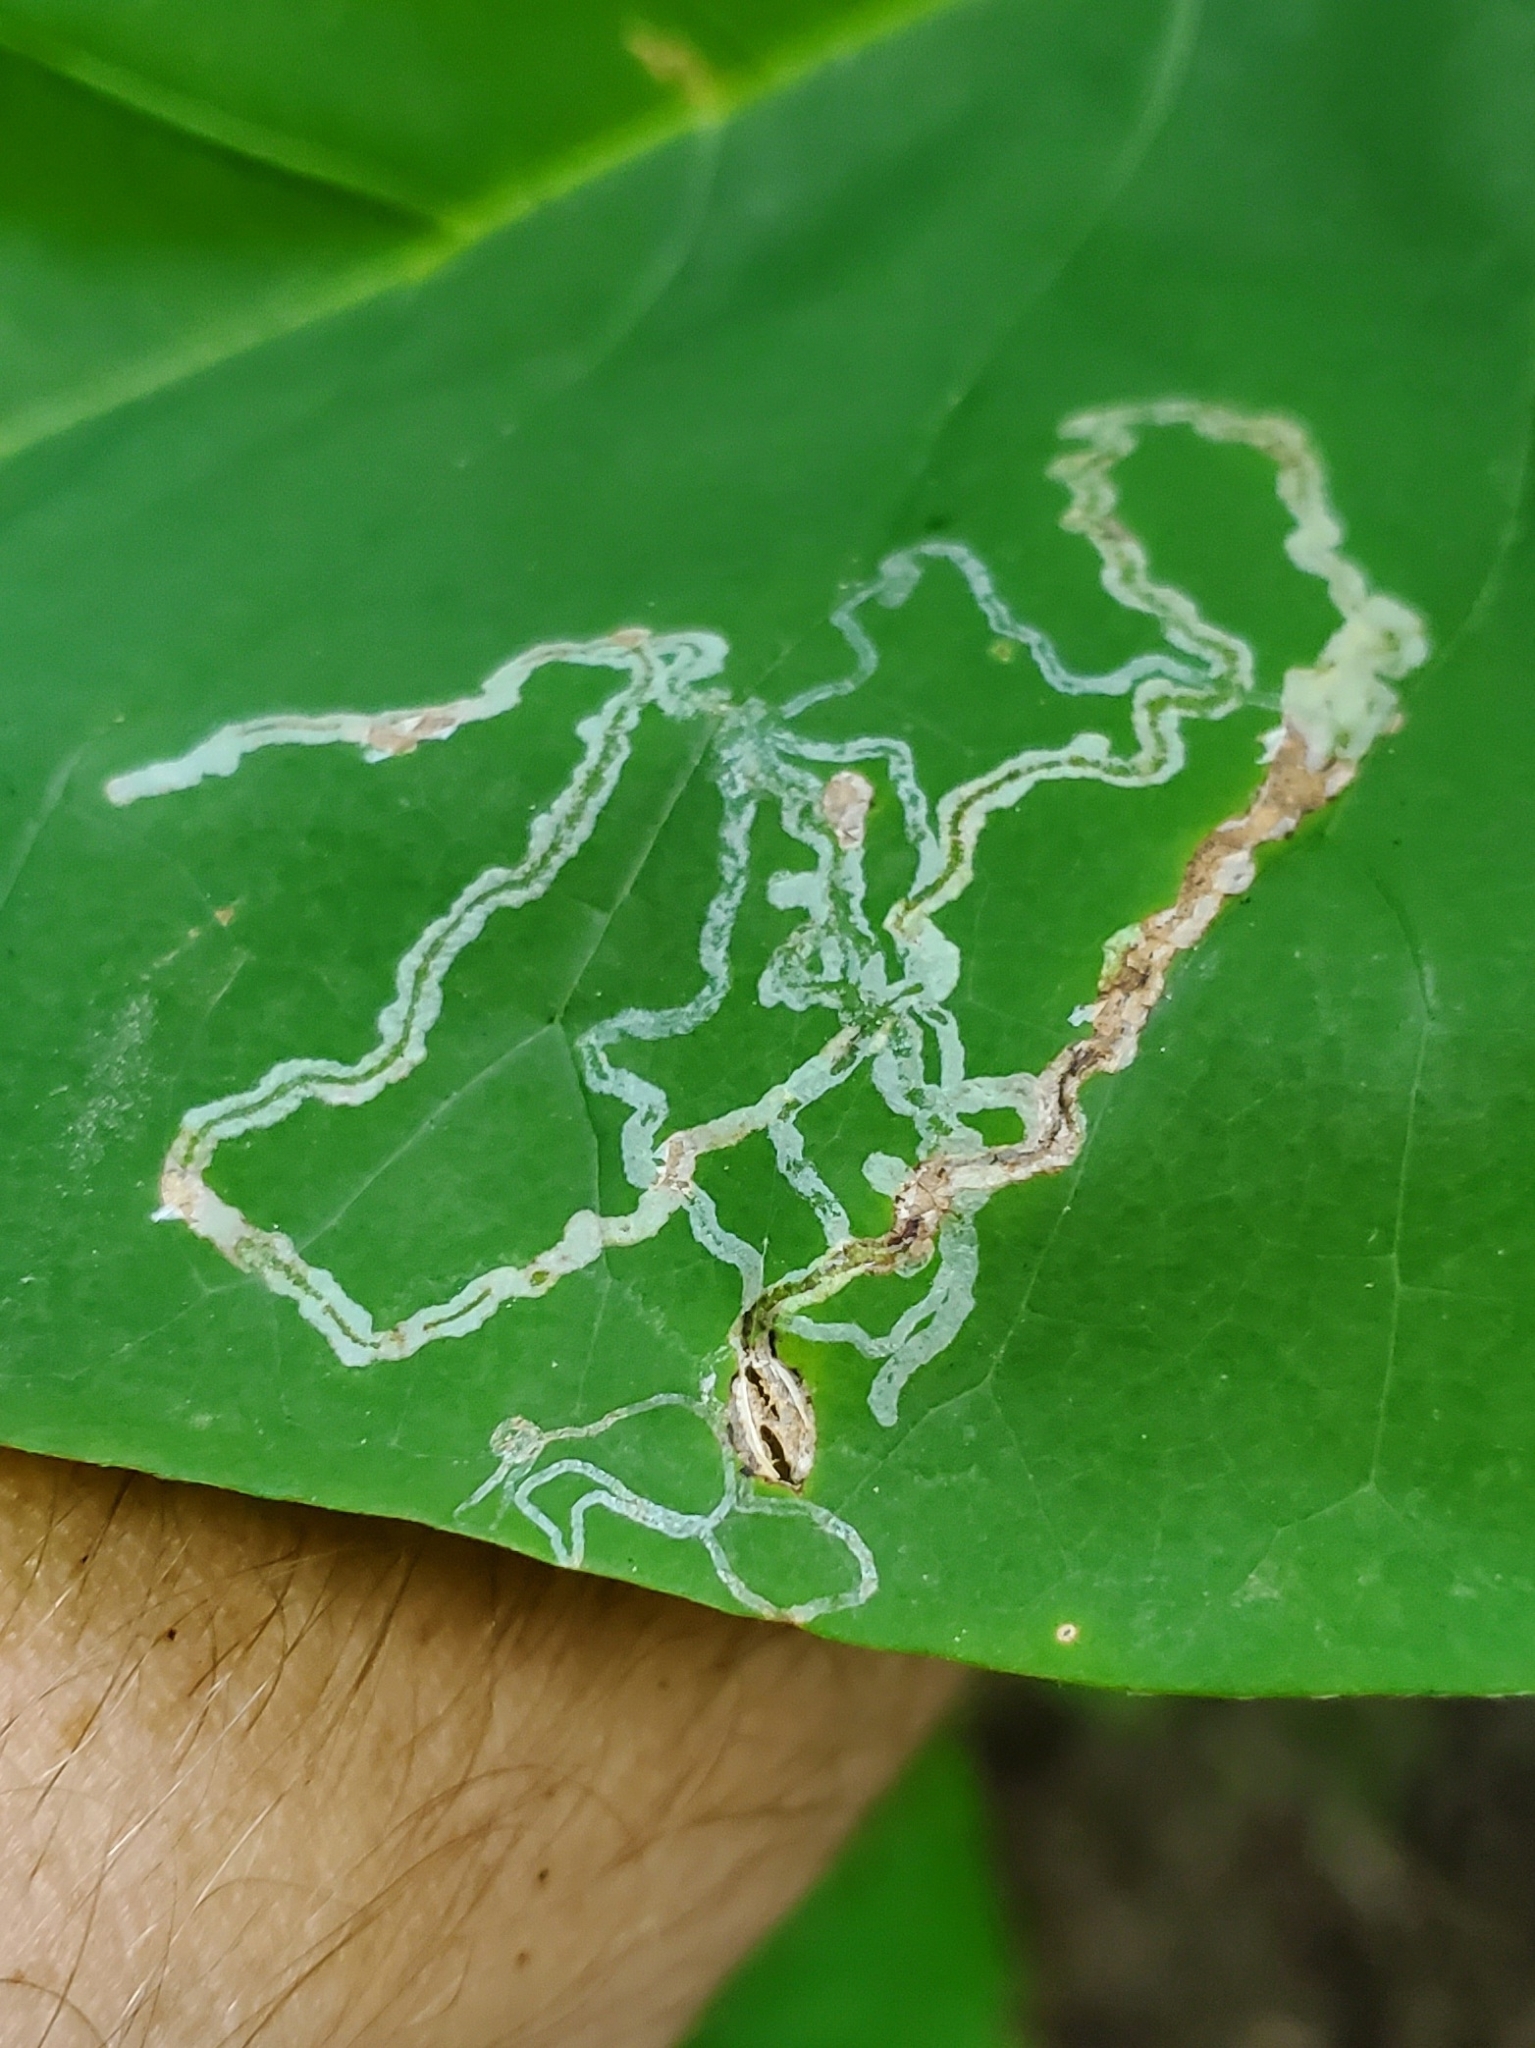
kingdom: Animalia
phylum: Arthropoda
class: Insecta
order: Lepidoptera
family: Gracillariidae
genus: Phyllocnistis
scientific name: Phyllocnistis liriodendronella
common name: Tulip tree leaf miner
